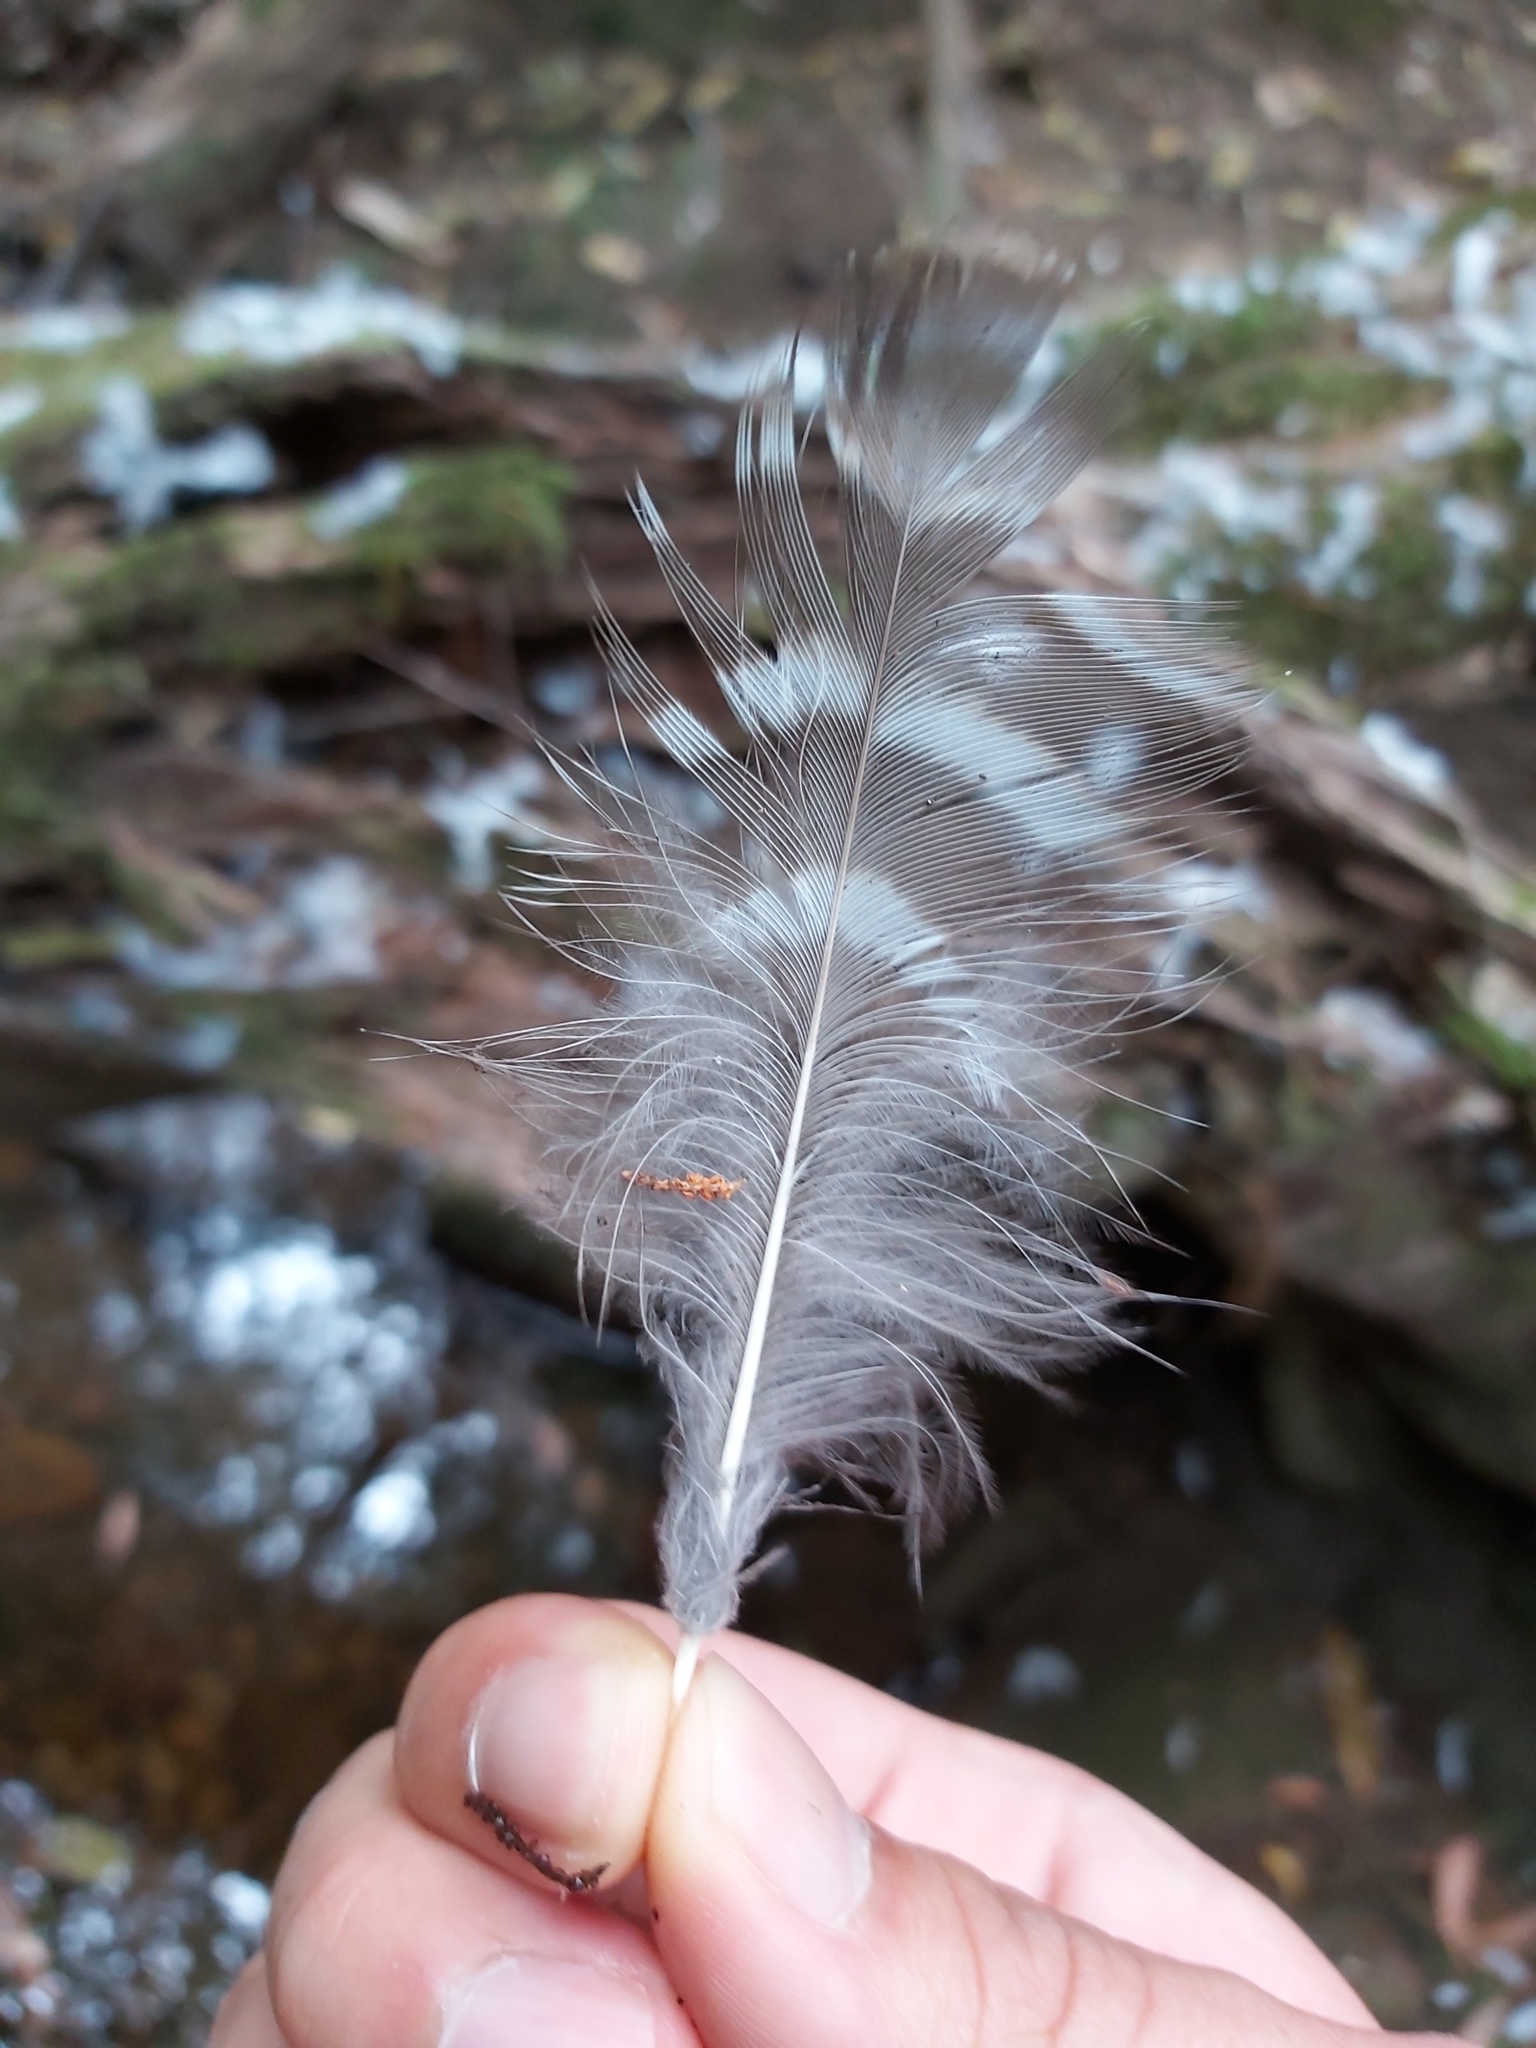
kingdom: Animalia
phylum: Chordata
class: Aves
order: Strigiformes
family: Strigidae
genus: Ninox
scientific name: Ninox strenua
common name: Powerful owl
